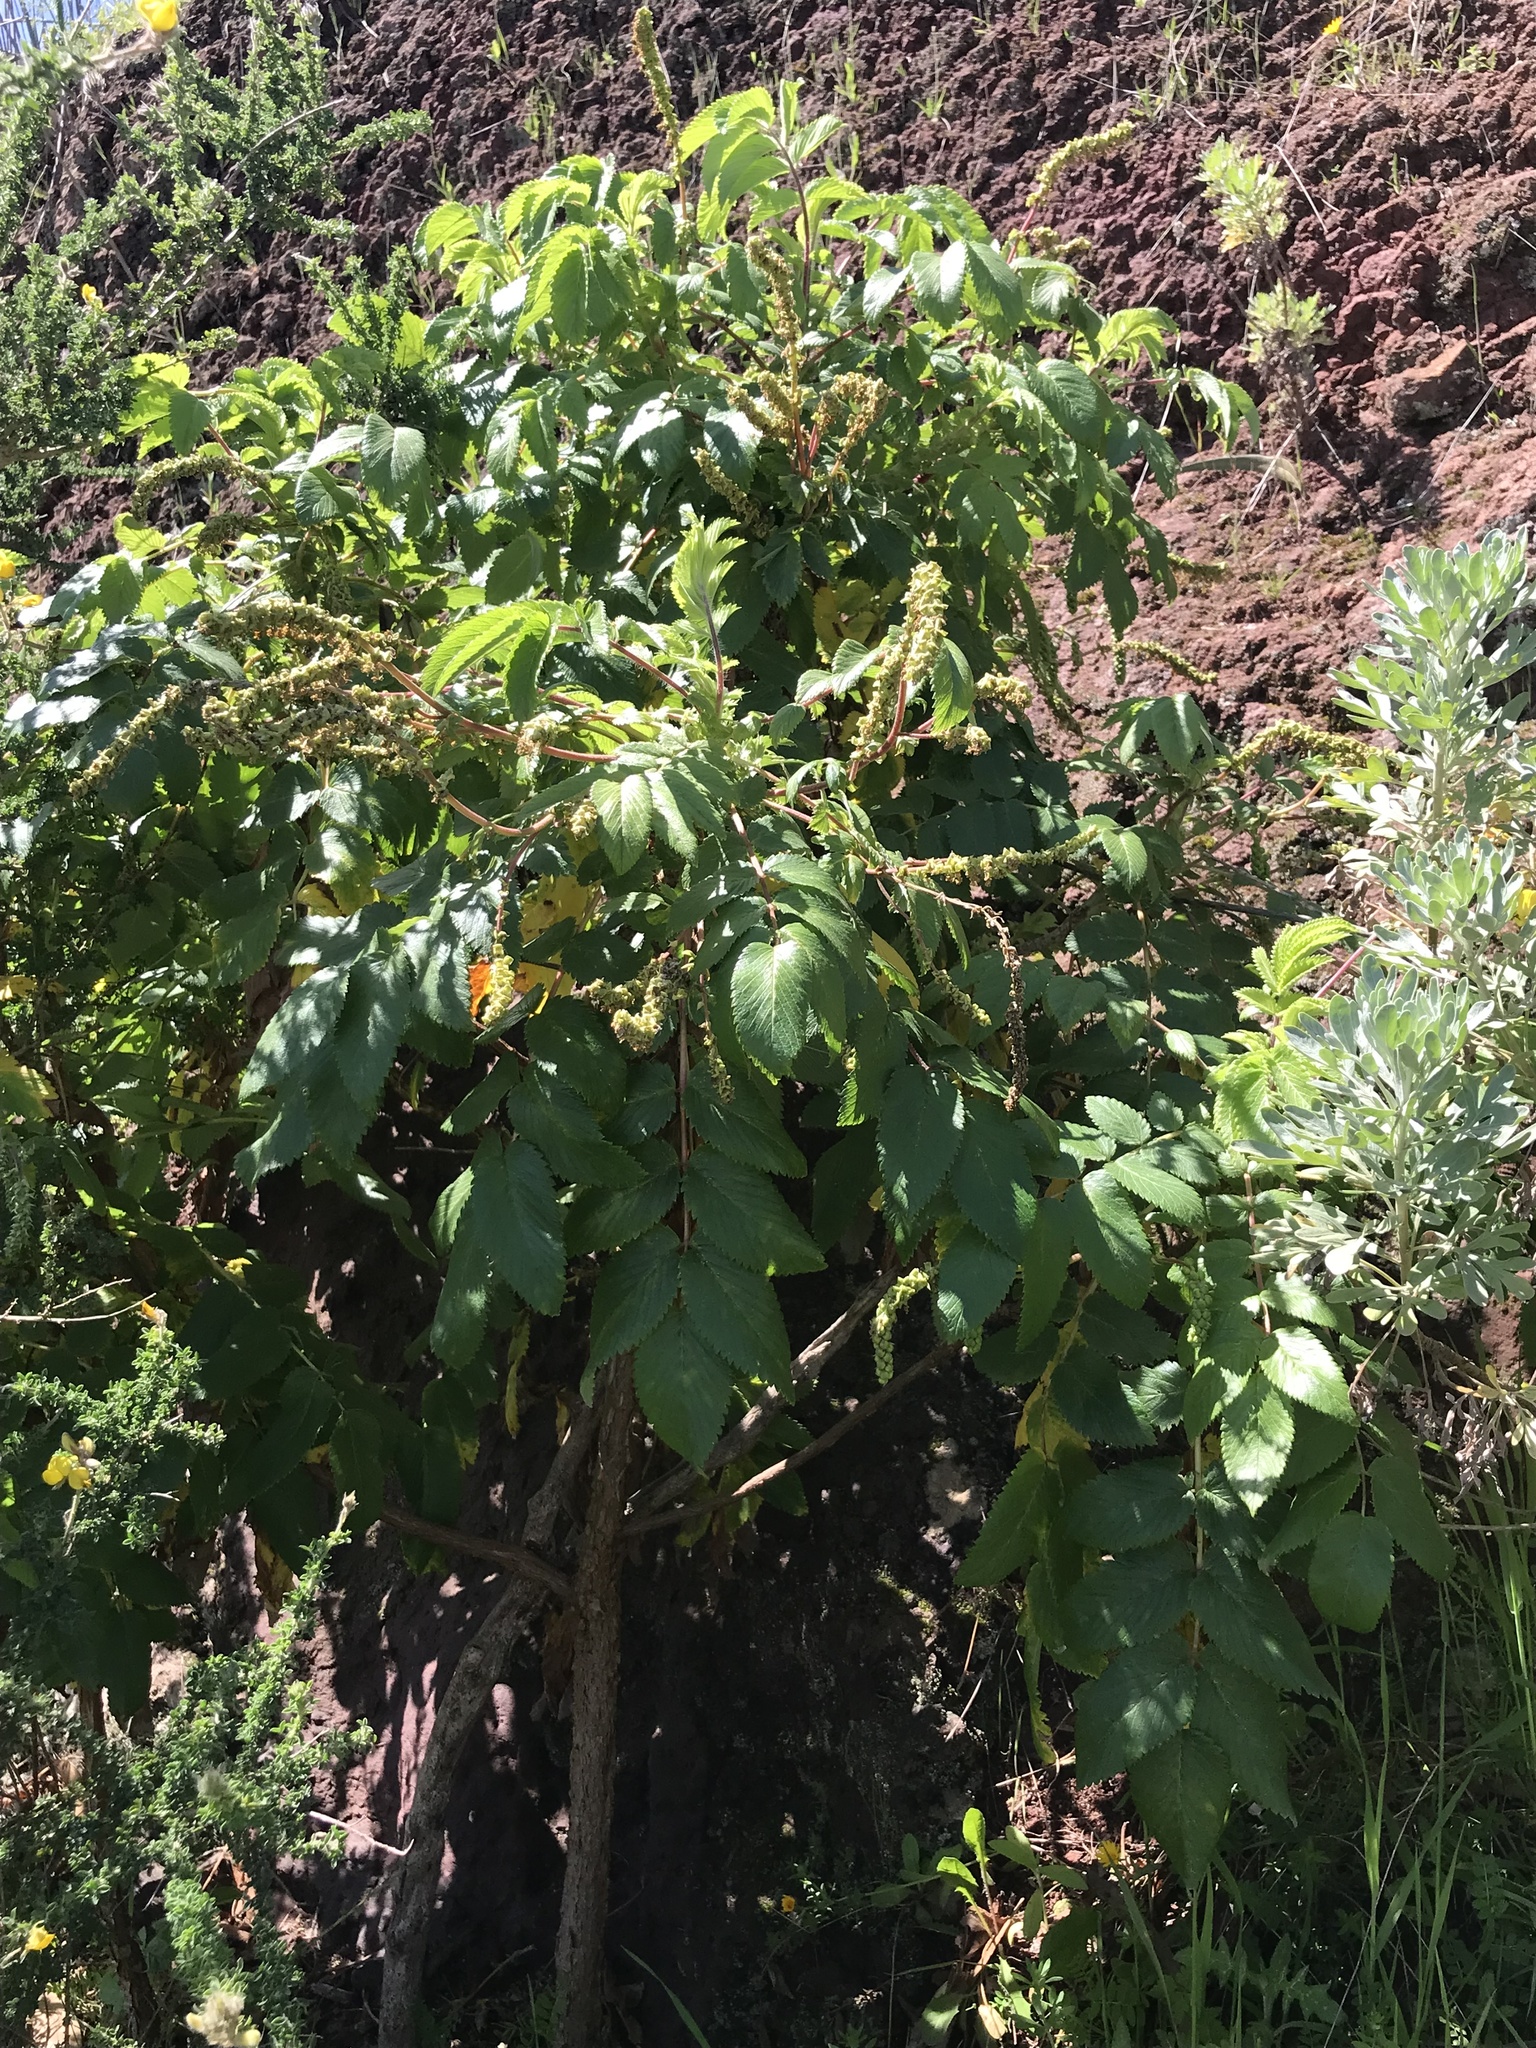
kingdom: Plantae
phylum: Tracheophyta
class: Magnoliopsida
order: Rosales
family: Rosaceae
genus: Bencomia
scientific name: Bencomia caudata
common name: Bencomia
